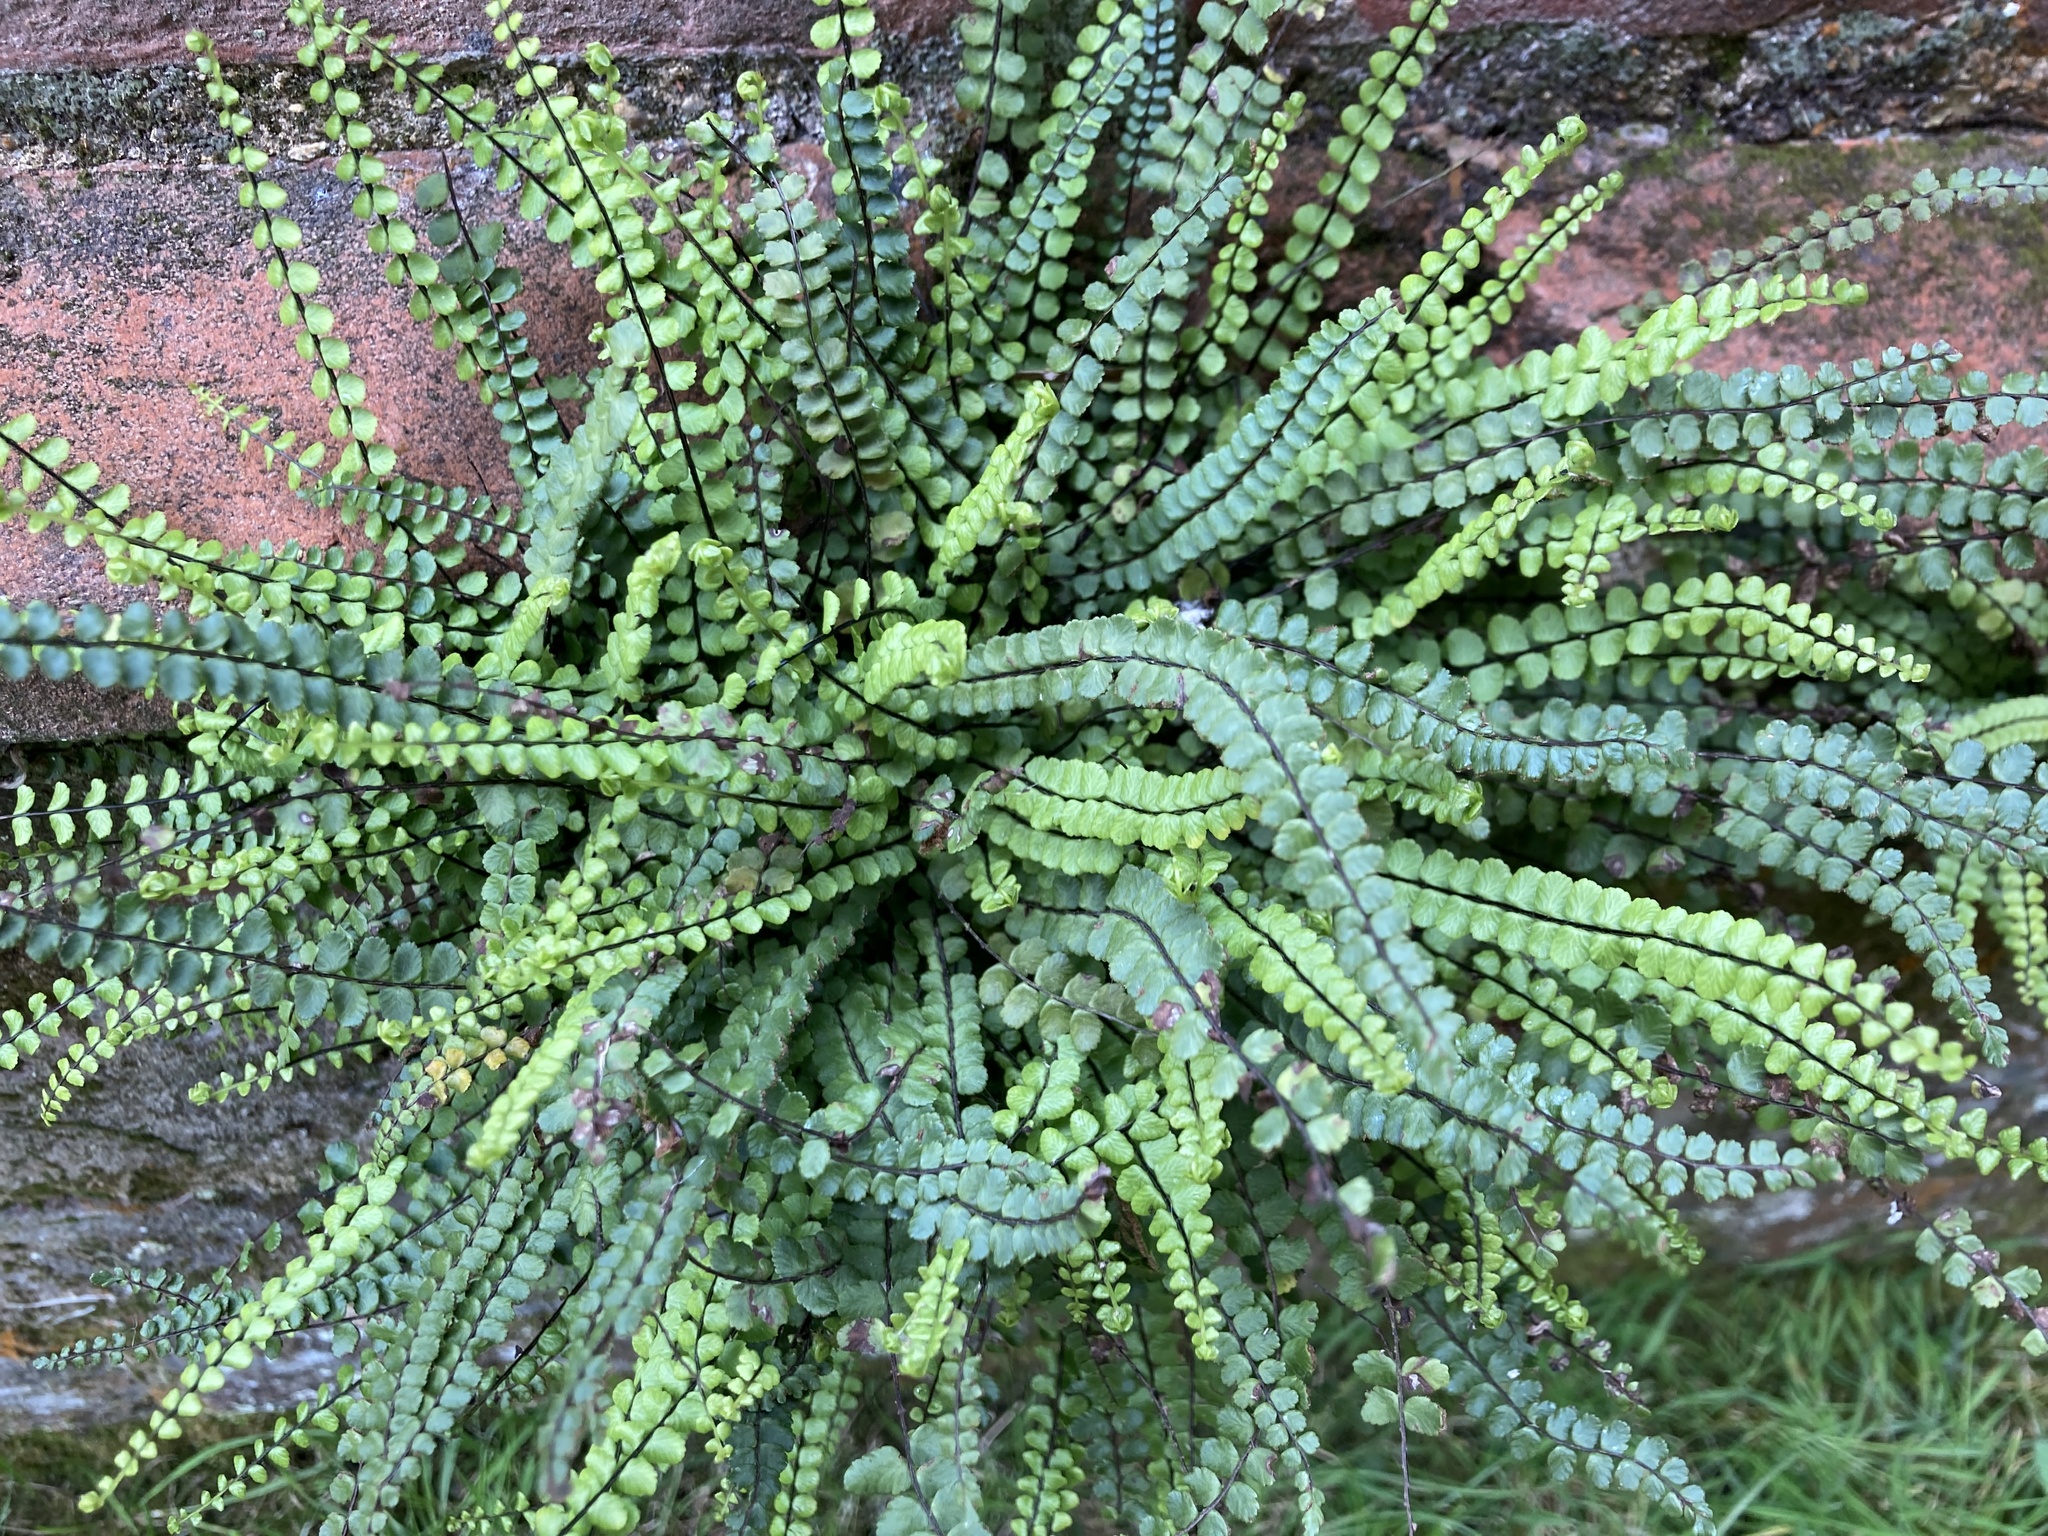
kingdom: Plantae
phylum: Tracheophyta
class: Polypodiopsida
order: Polypodiales
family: Aspleniaceae
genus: Asplenium
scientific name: Asplenium trichomanes
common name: Maidenhair spleenwort
